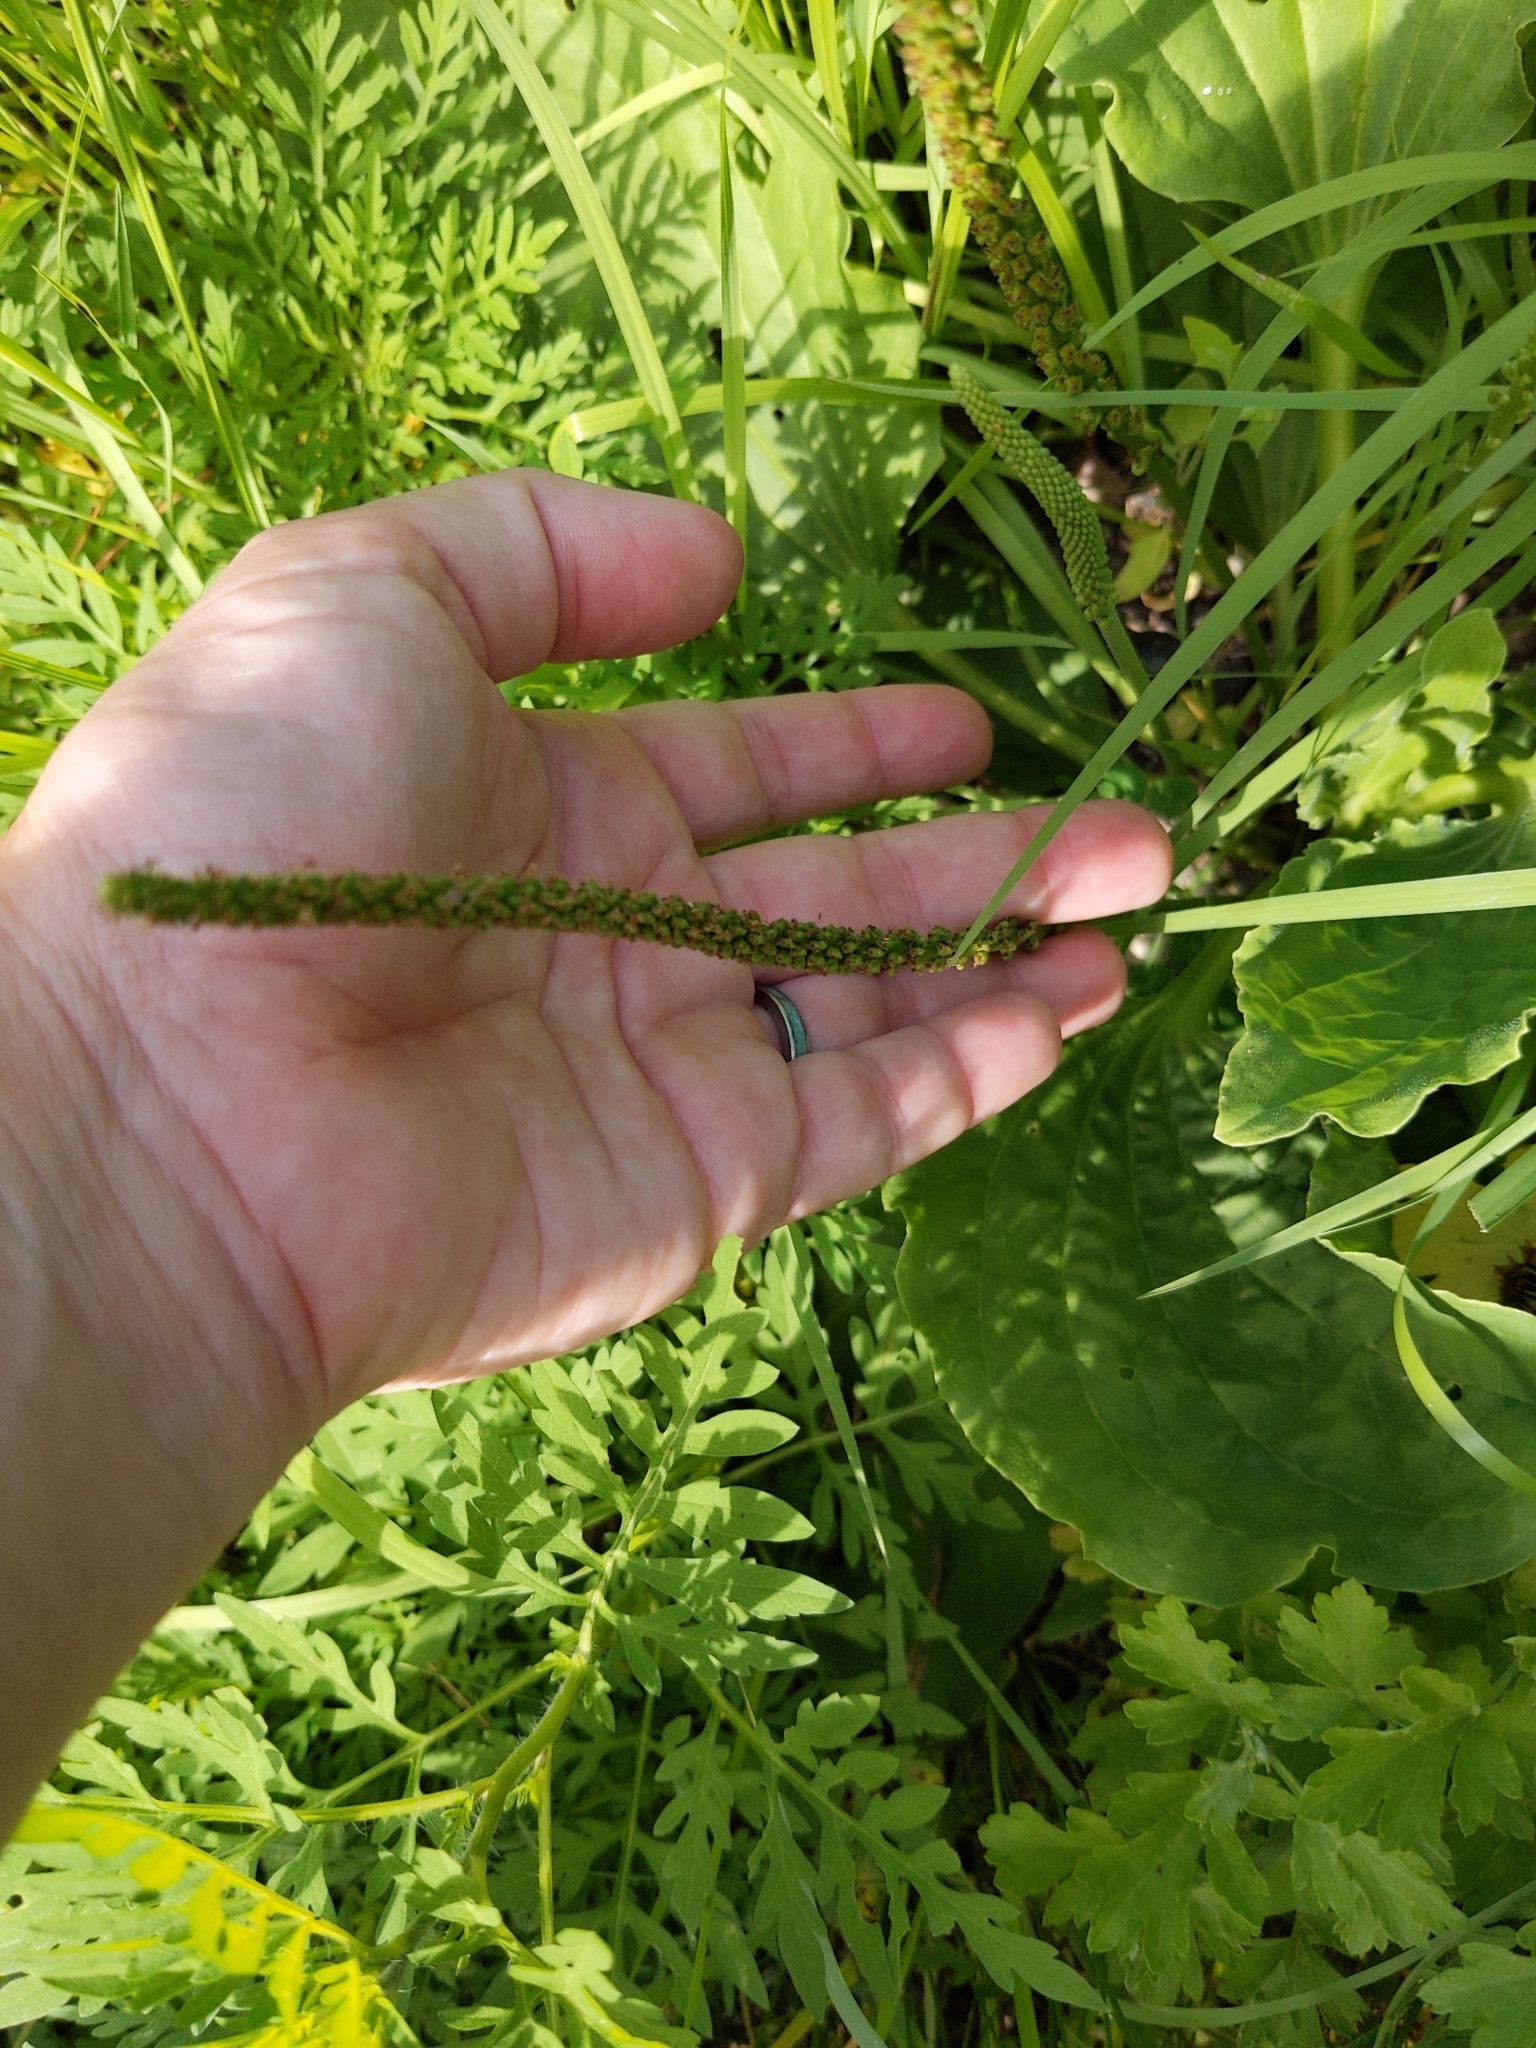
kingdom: Plantae
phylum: Tracheophyta
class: Magnoliopsida
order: Lamiales
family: Plantaginaceae
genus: Plantago
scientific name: Plantago major
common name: Common plantain
